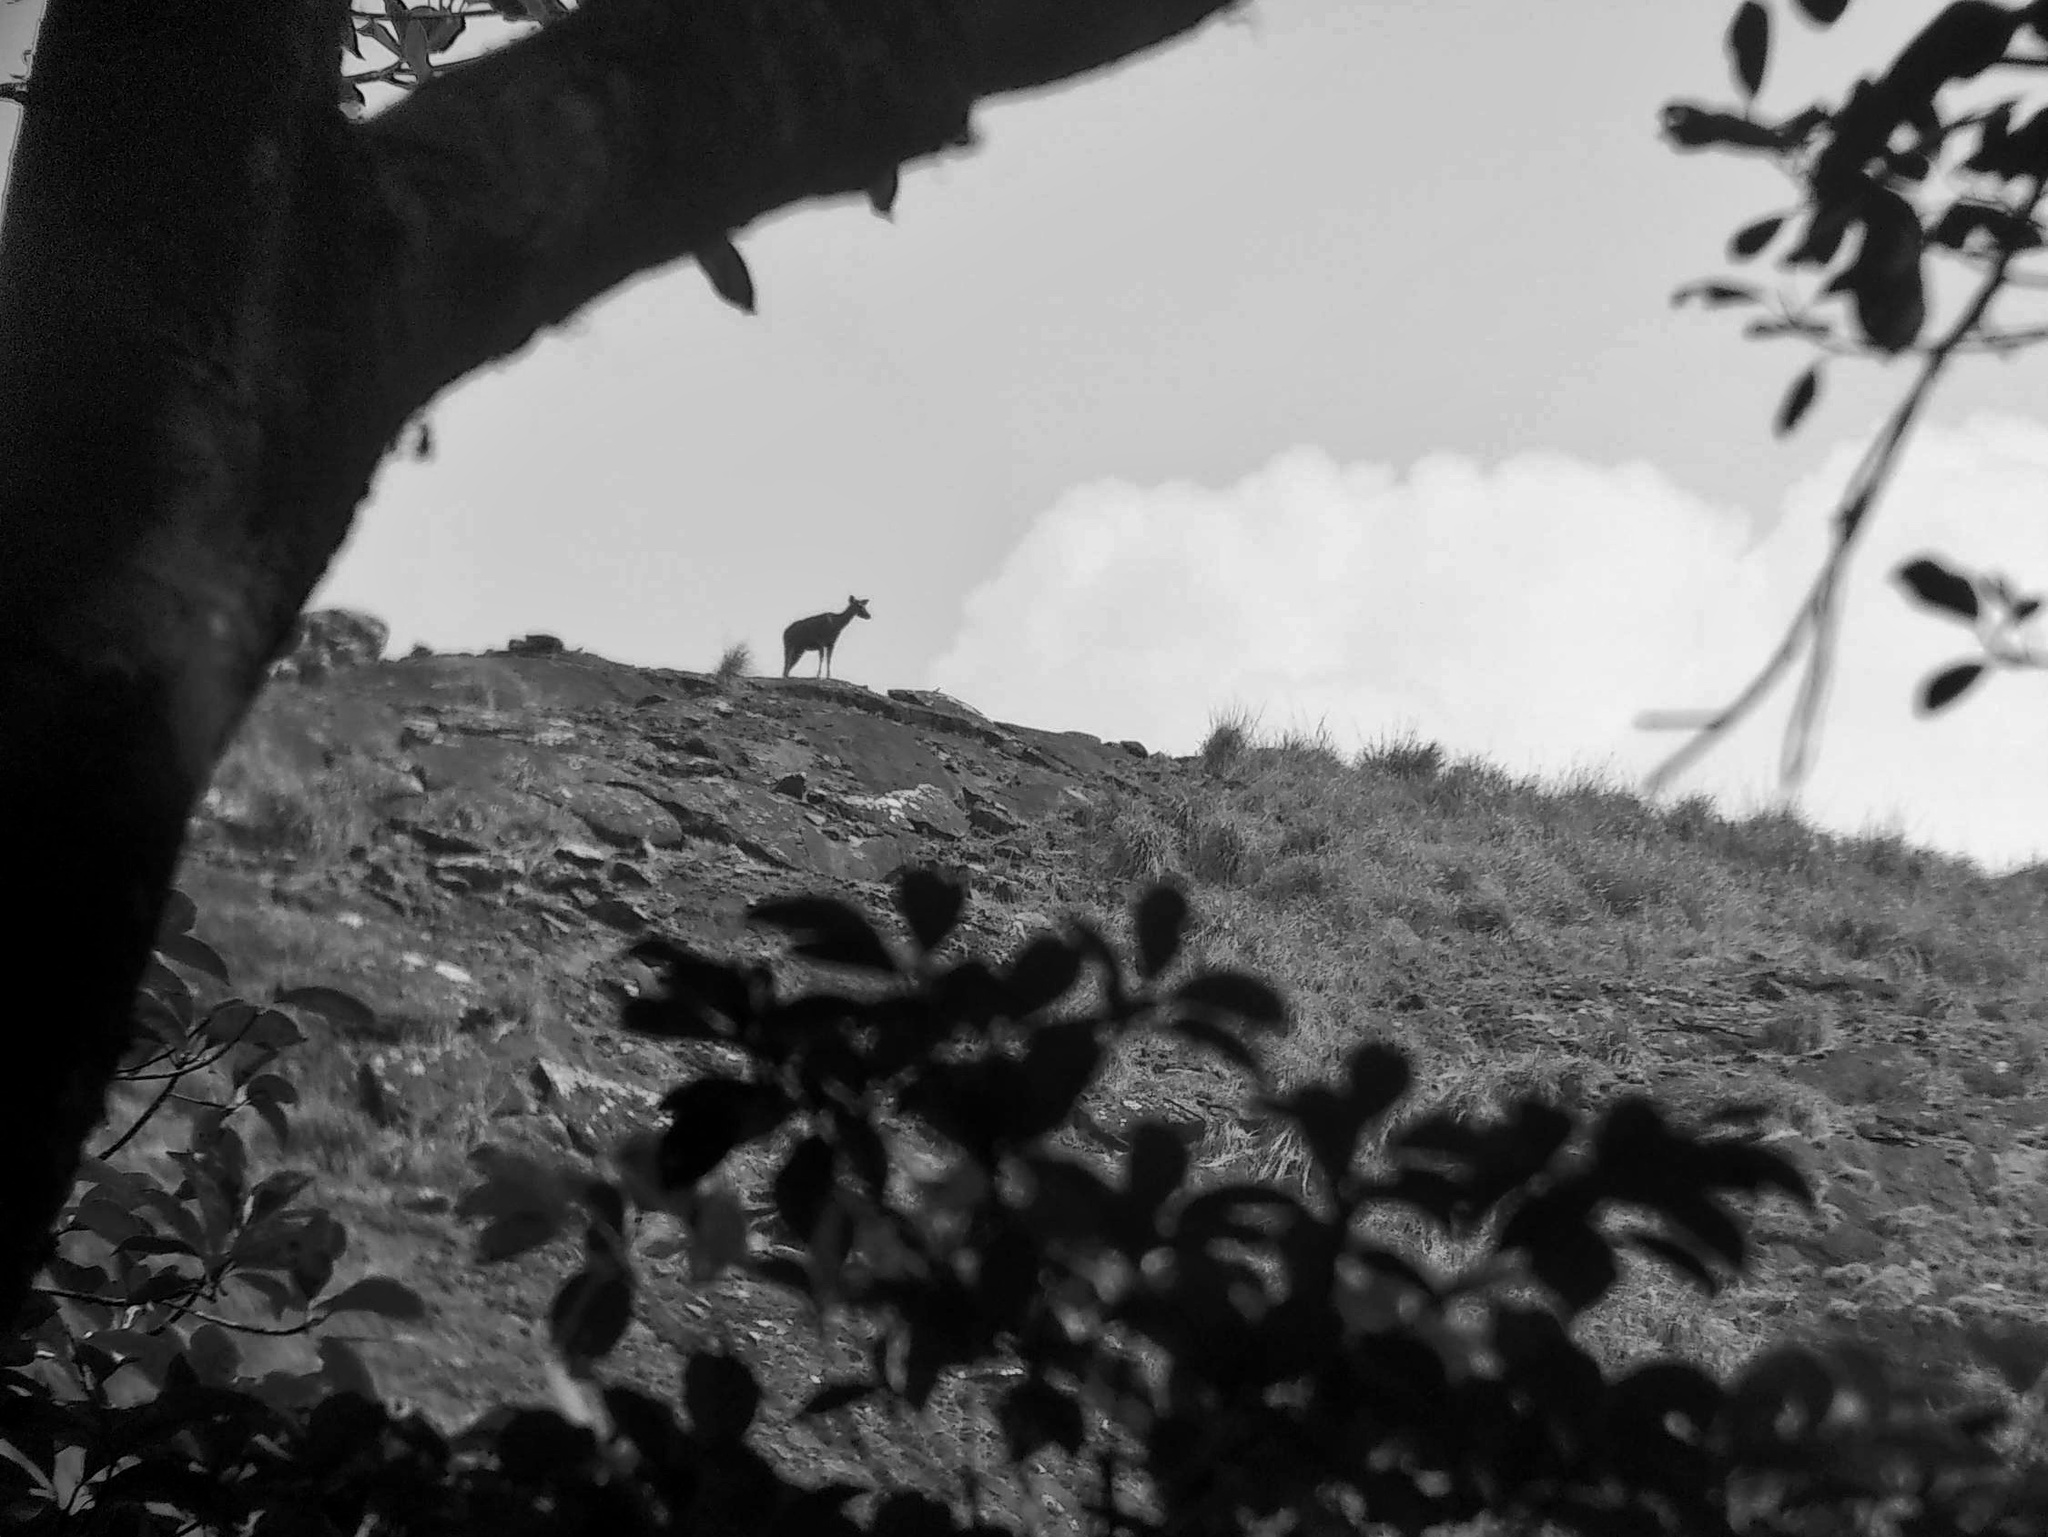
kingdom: Animalia
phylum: Chordata
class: Mammalia
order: Artiodactyla
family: Cervidae
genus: Rusa
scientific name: Rusa unicolor
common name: Sambar
